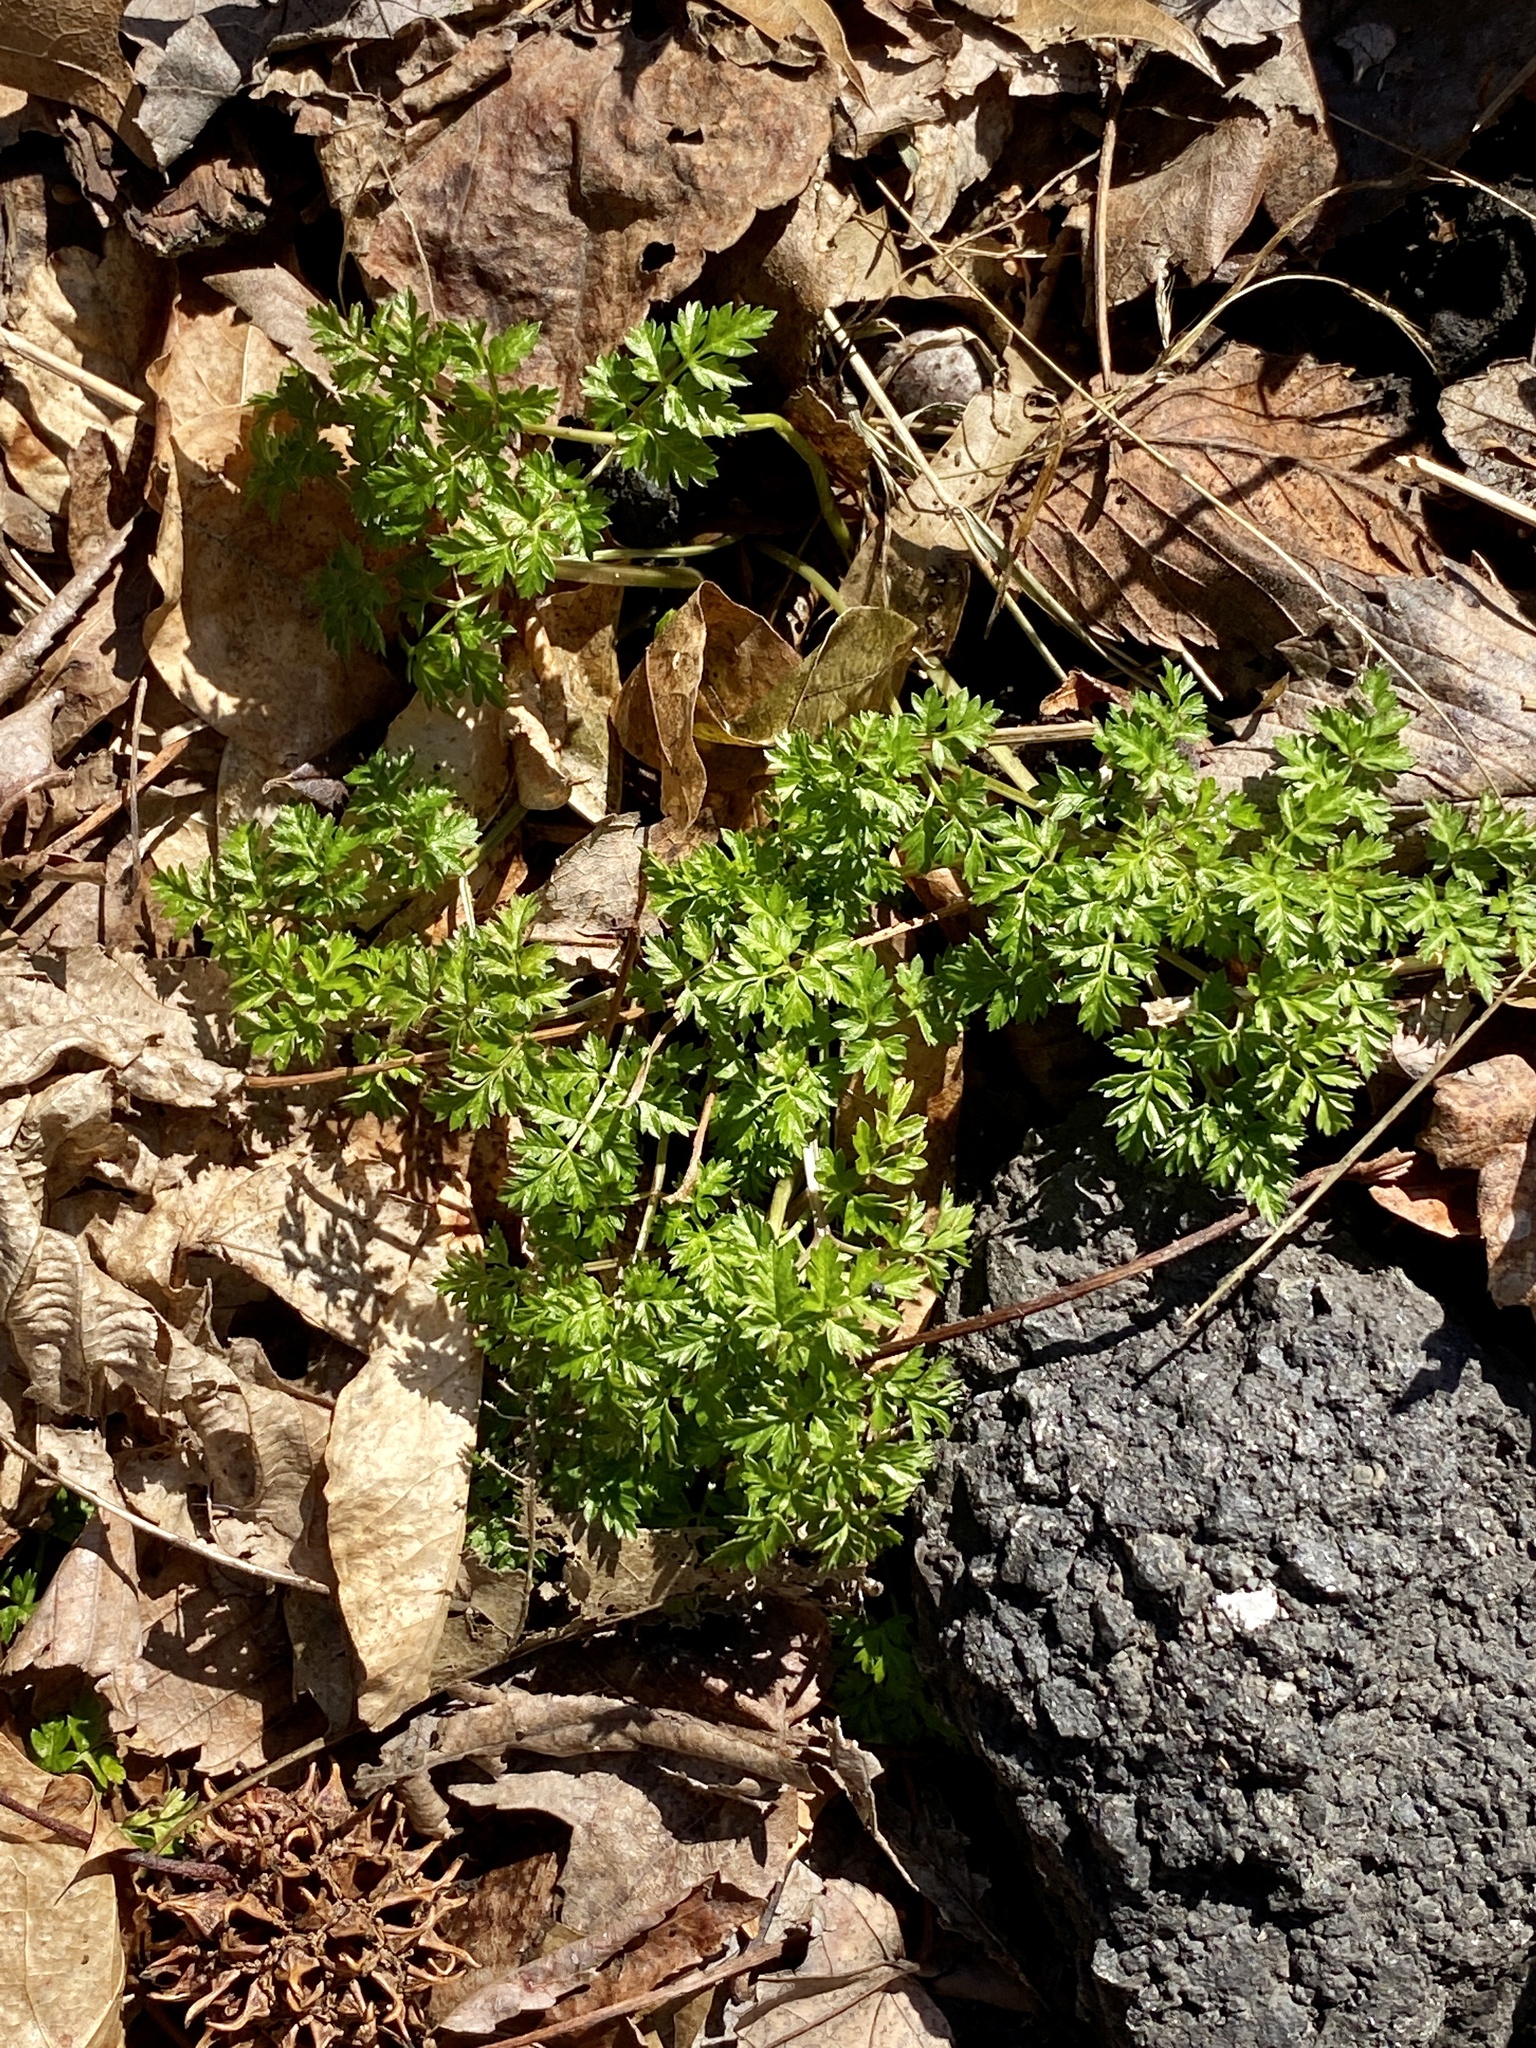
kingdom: Plantae
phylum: Tracheophyta
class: Magnoliopsida
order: Apiales
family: Apiaceae
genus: Conium
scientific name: Conium maculatum
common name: Hemlock
